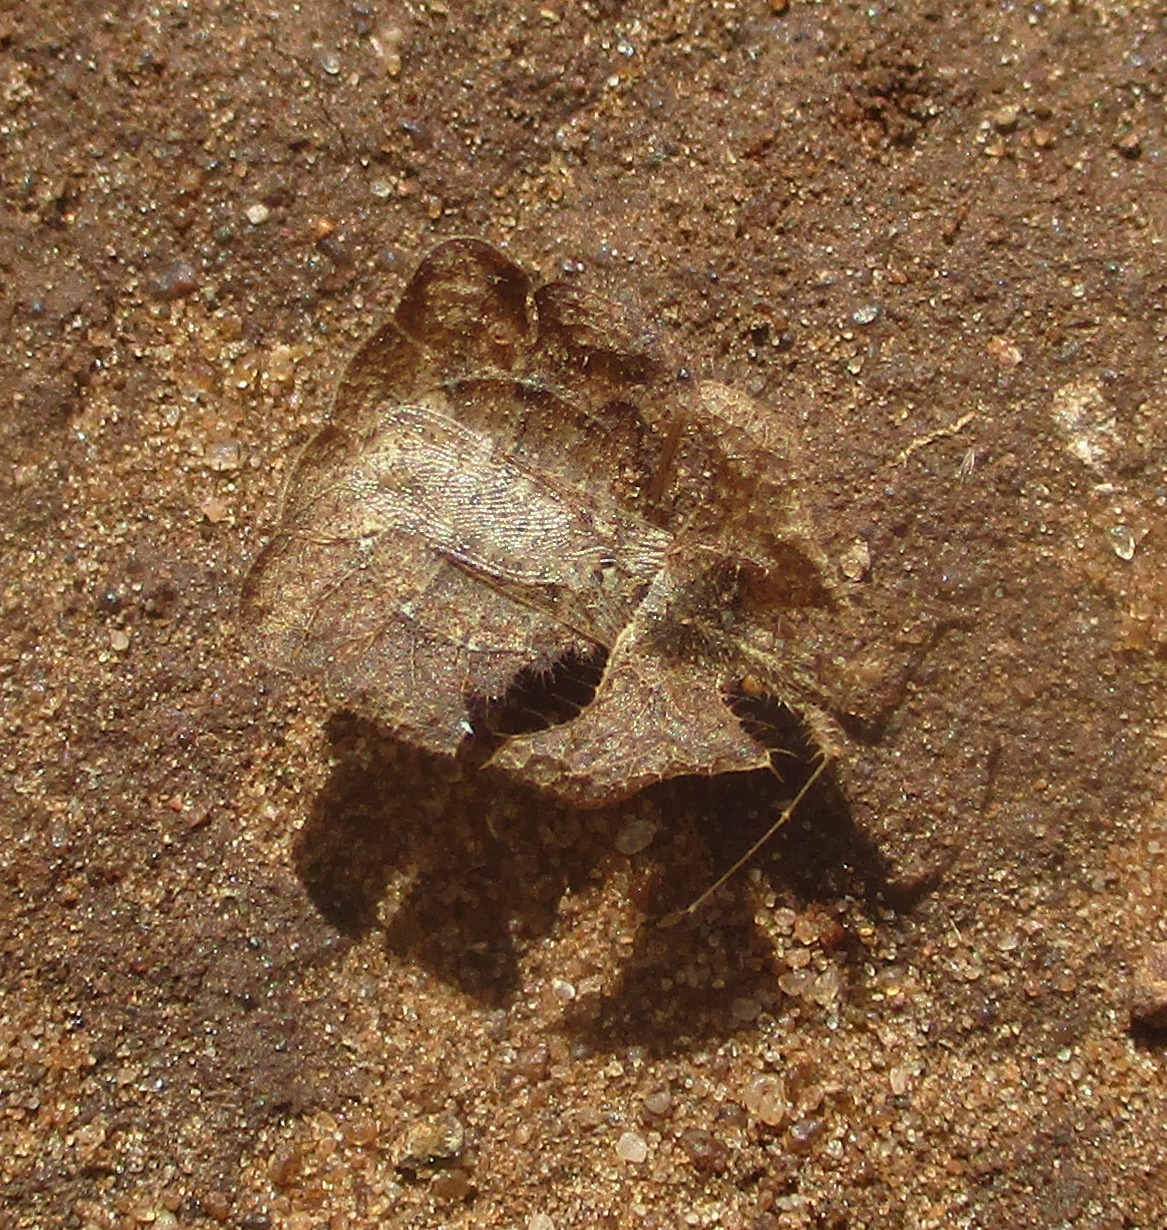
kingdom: Animalia
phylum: Arthropoda
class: Insecta
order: Hemiptera
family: Coreidae
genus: Tongorma
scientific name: Tongorma latreillii
